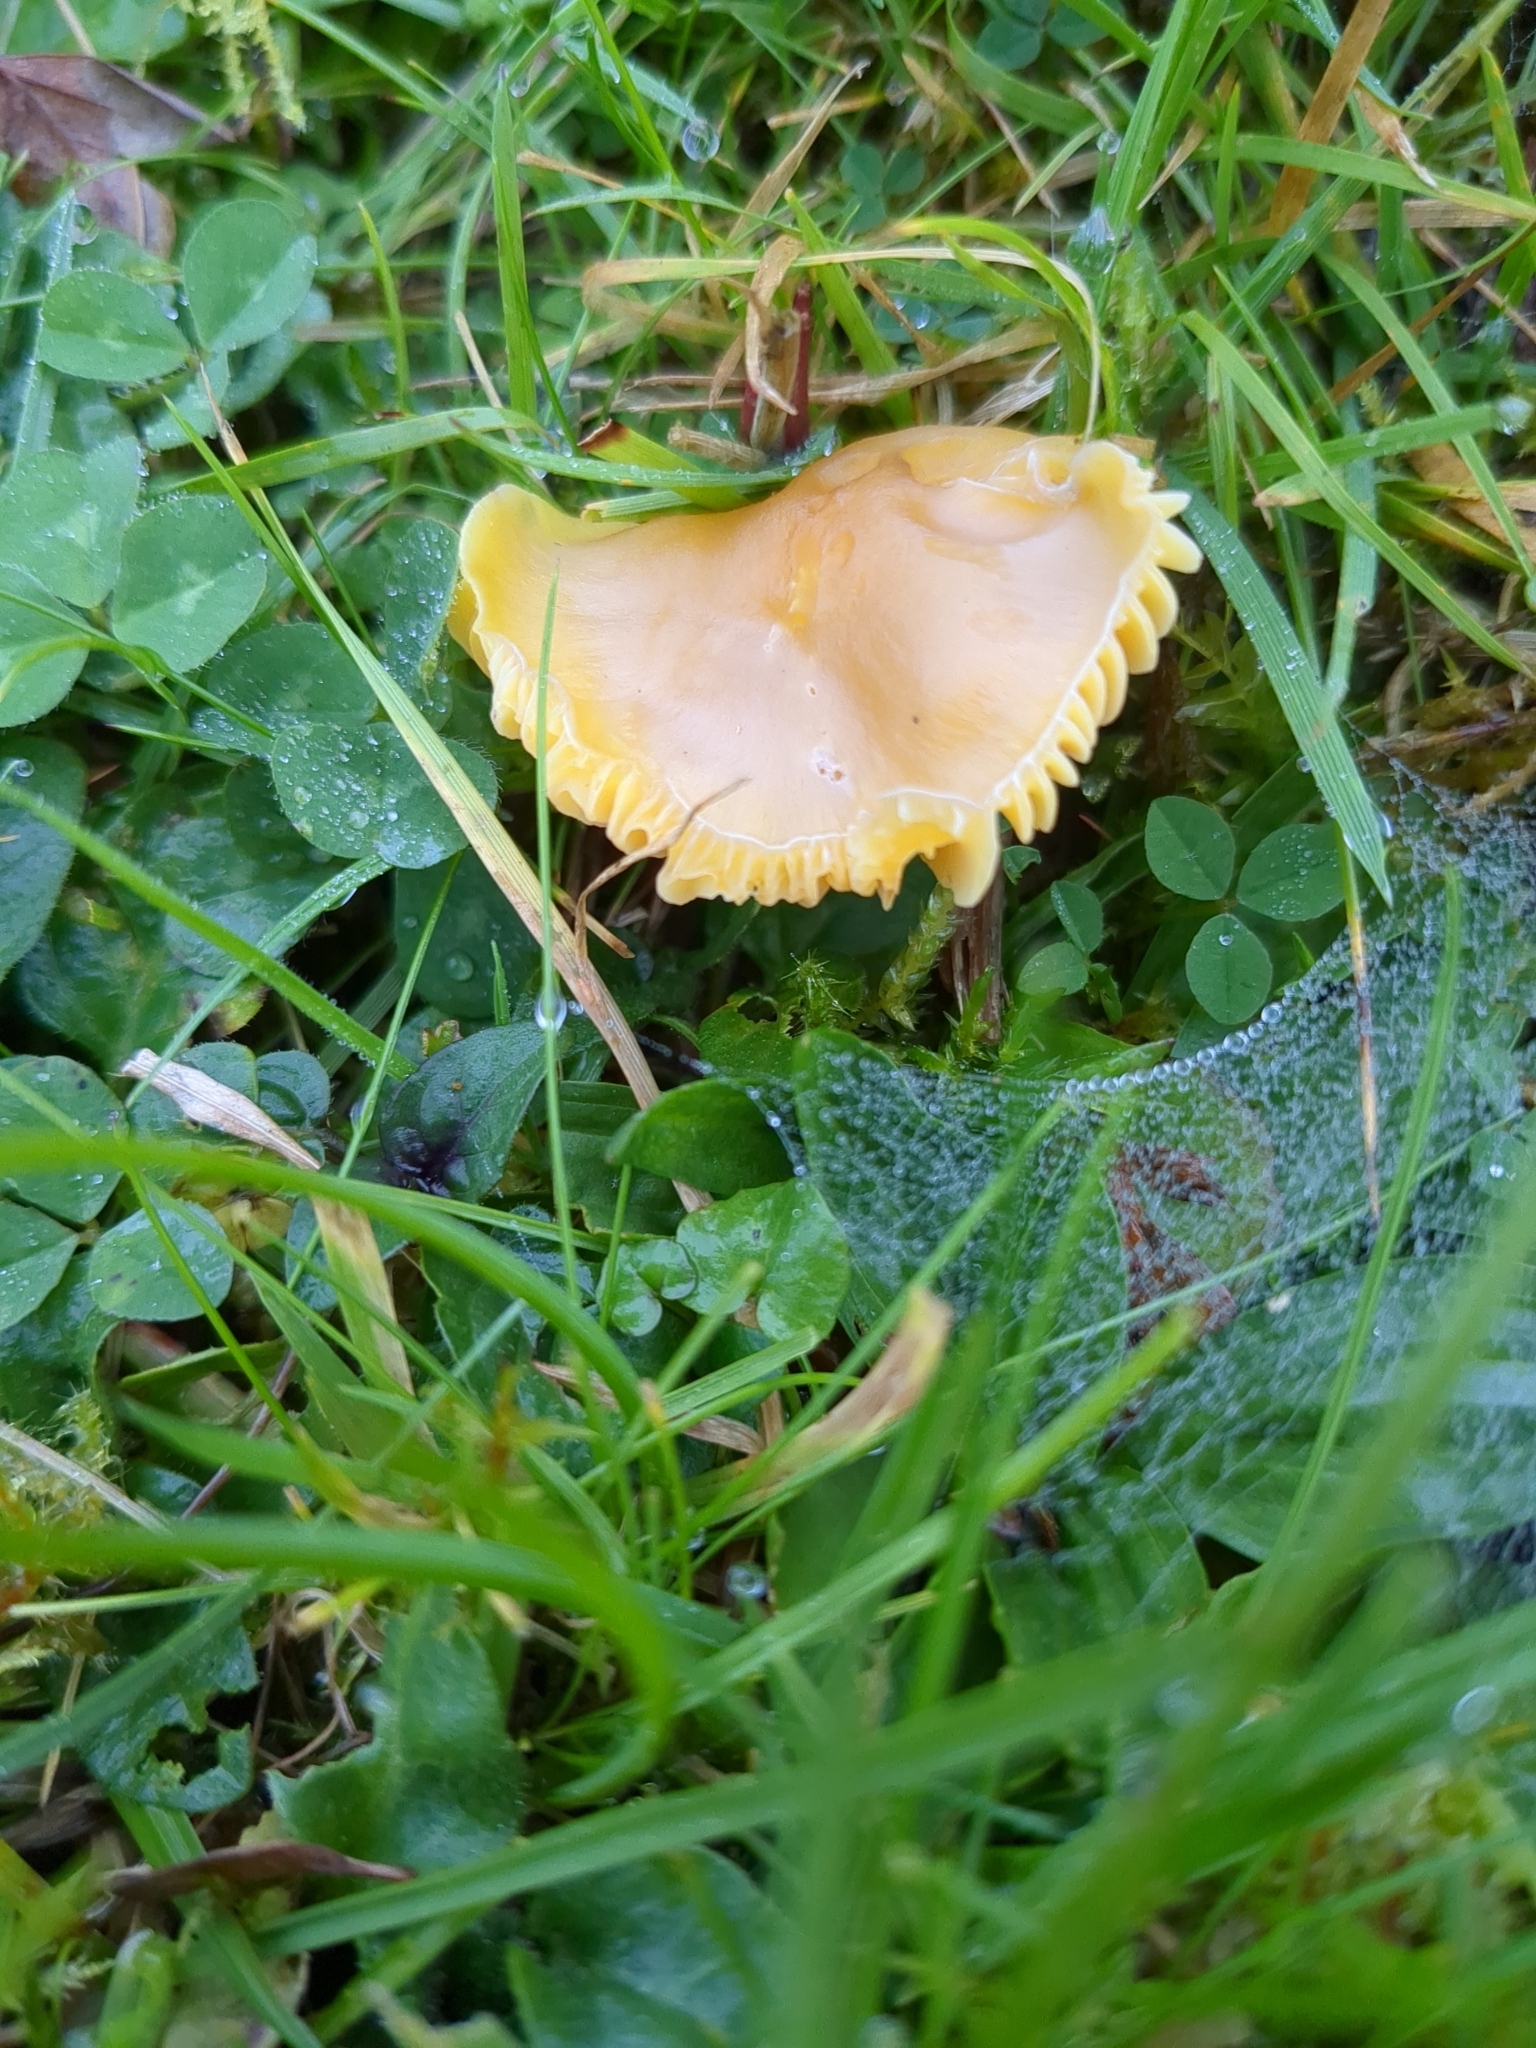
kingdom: Fungi
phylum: Basidiomycota
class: Agaricomycetes
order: Agaricales
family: Hygrophoraceae
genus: Hygrocybe
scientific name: Hygrocybe quieta
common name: Oily waxcap
